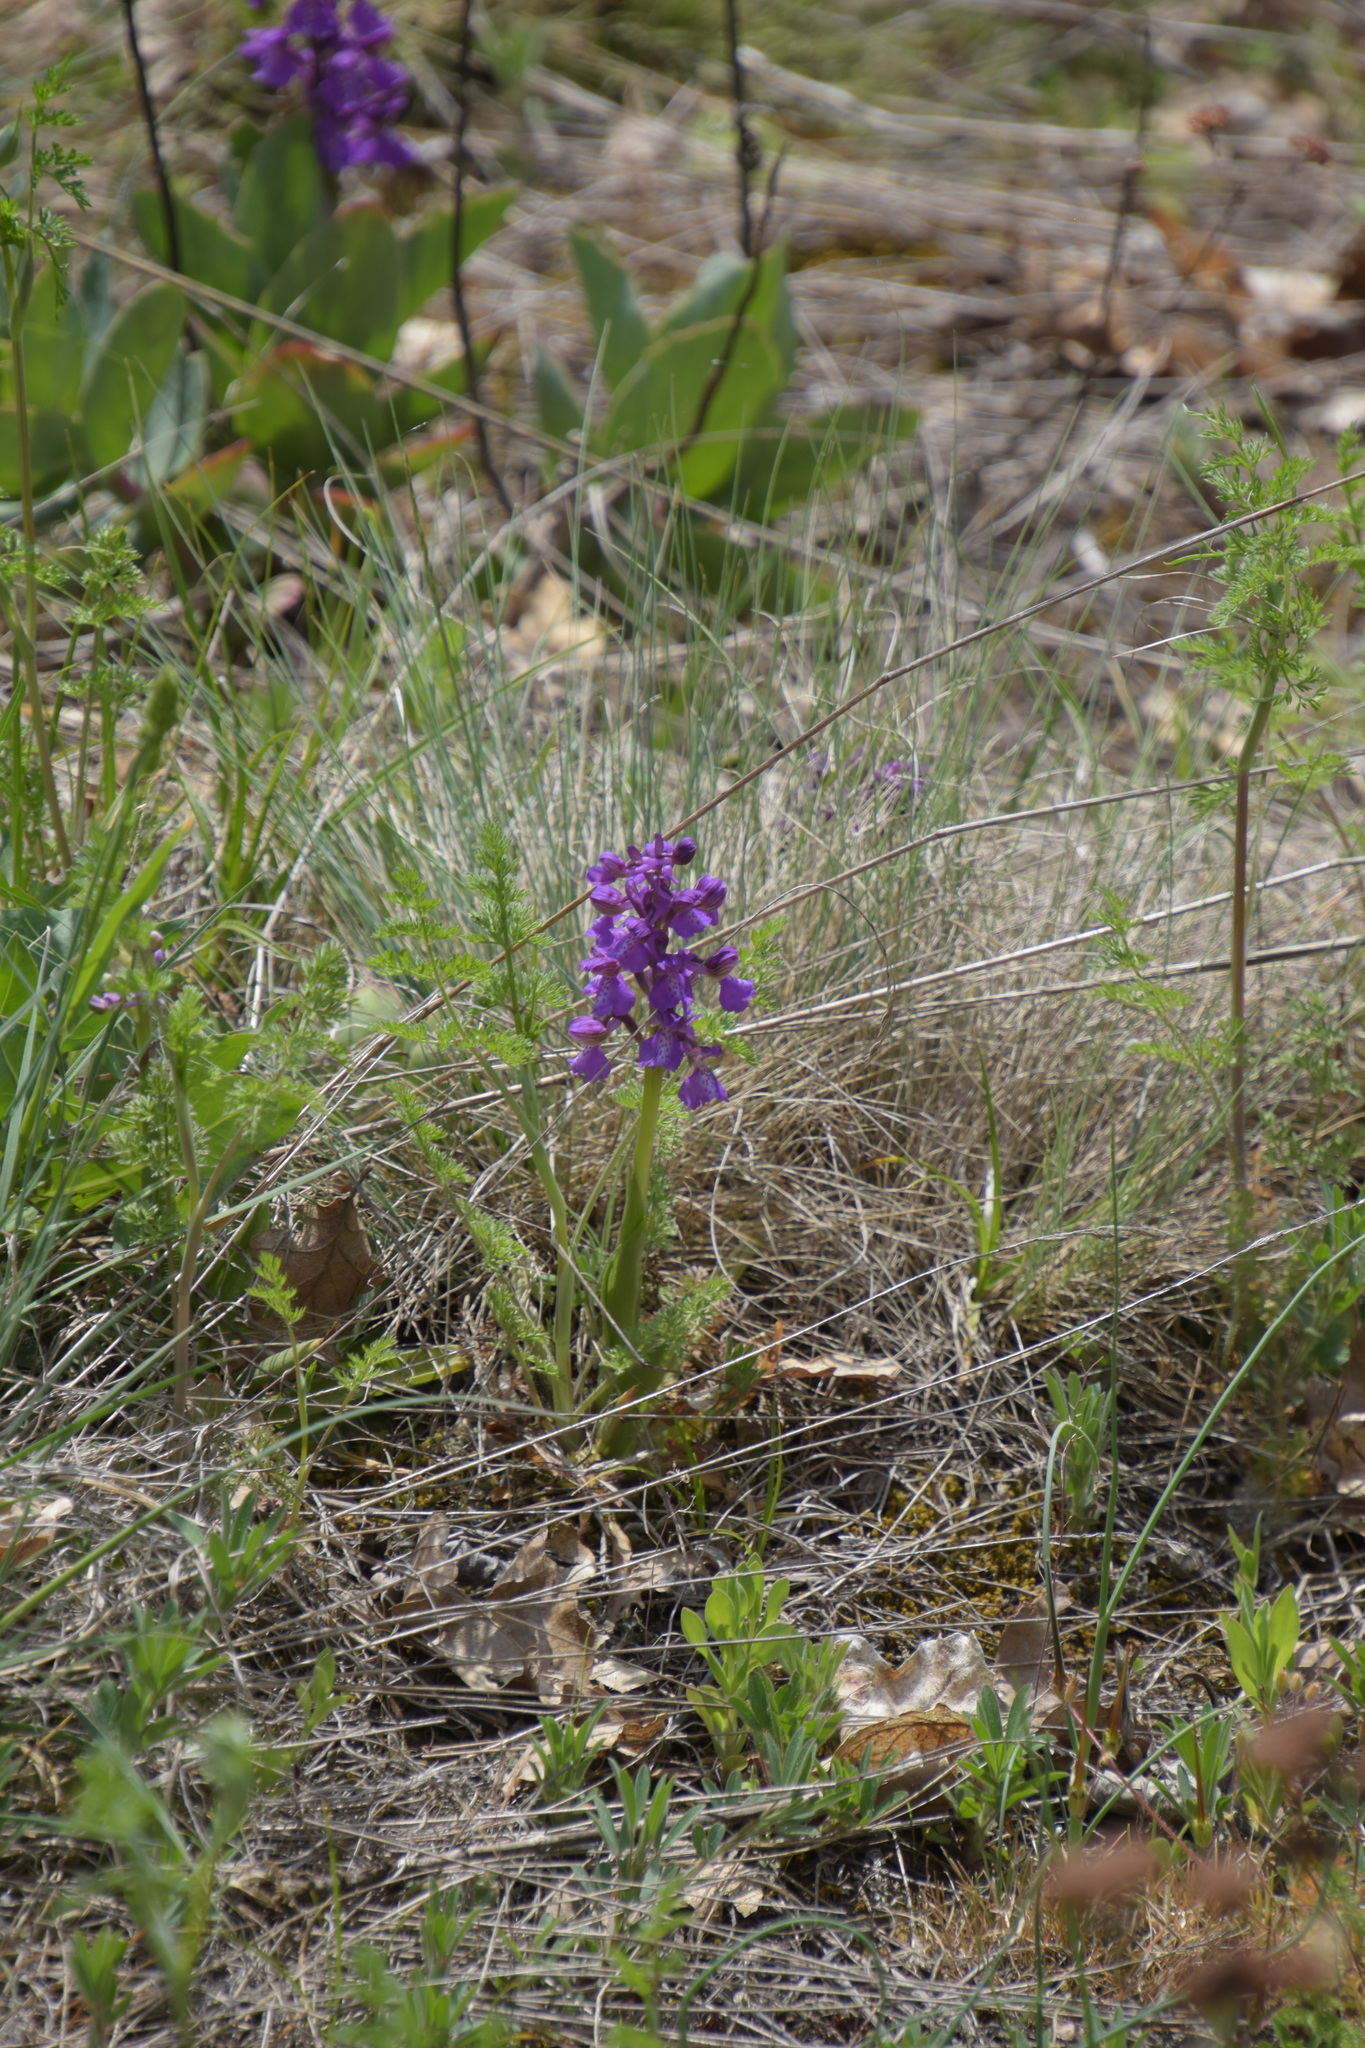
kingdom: Plantae
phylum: Tracheophyta
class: Liliopsida
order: Asparagales
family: Orchidaceae
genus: Anacamptis
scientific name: Anacamptis morio
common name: Green-winged orchid
